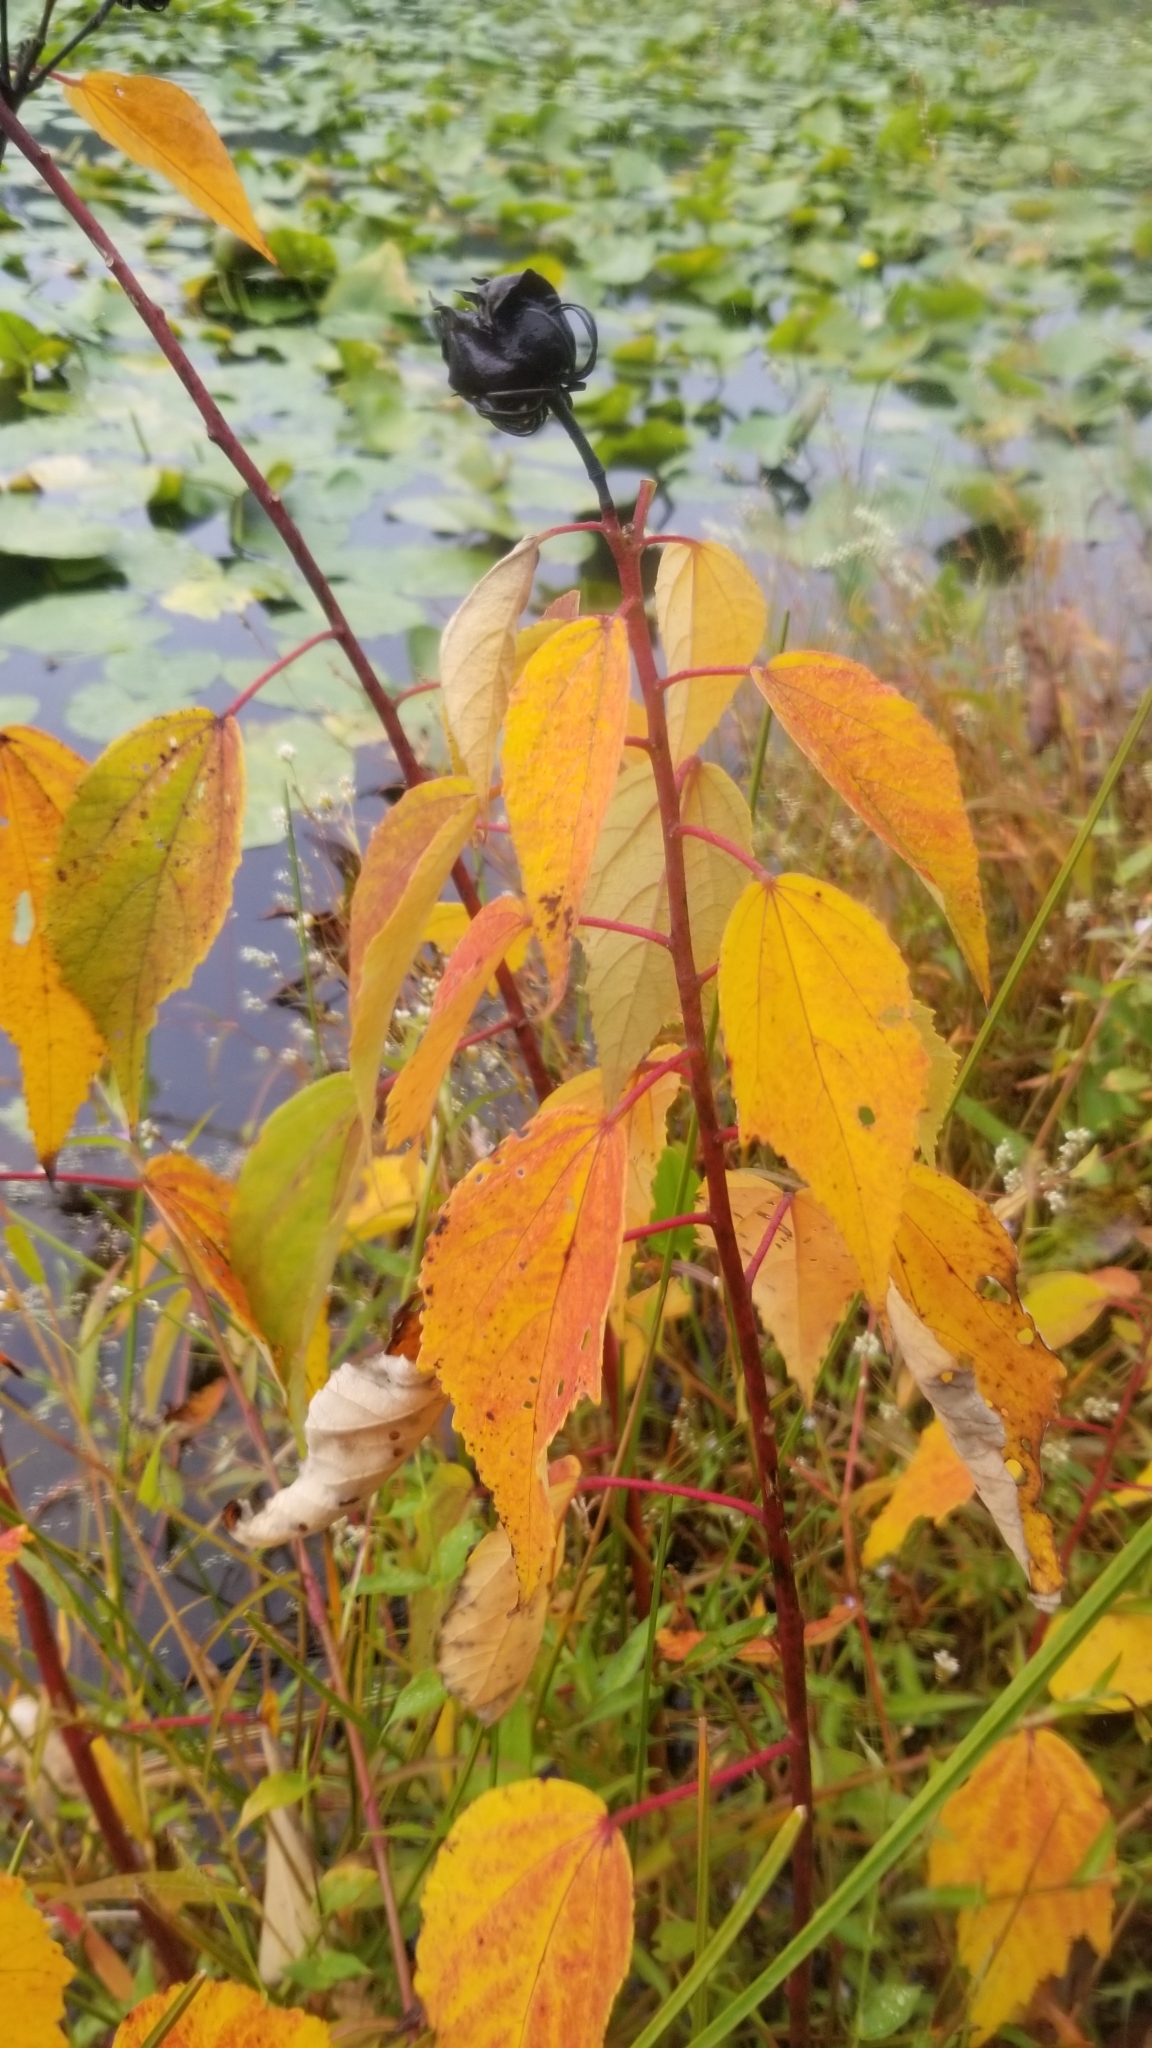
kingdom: Plantae
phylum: Tracheophyta
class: Magnoliopsida
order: Malvales
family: Malvaceae
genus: Hibiscus
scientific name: Hibiscus moscheutos
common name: Common rose-mallow
